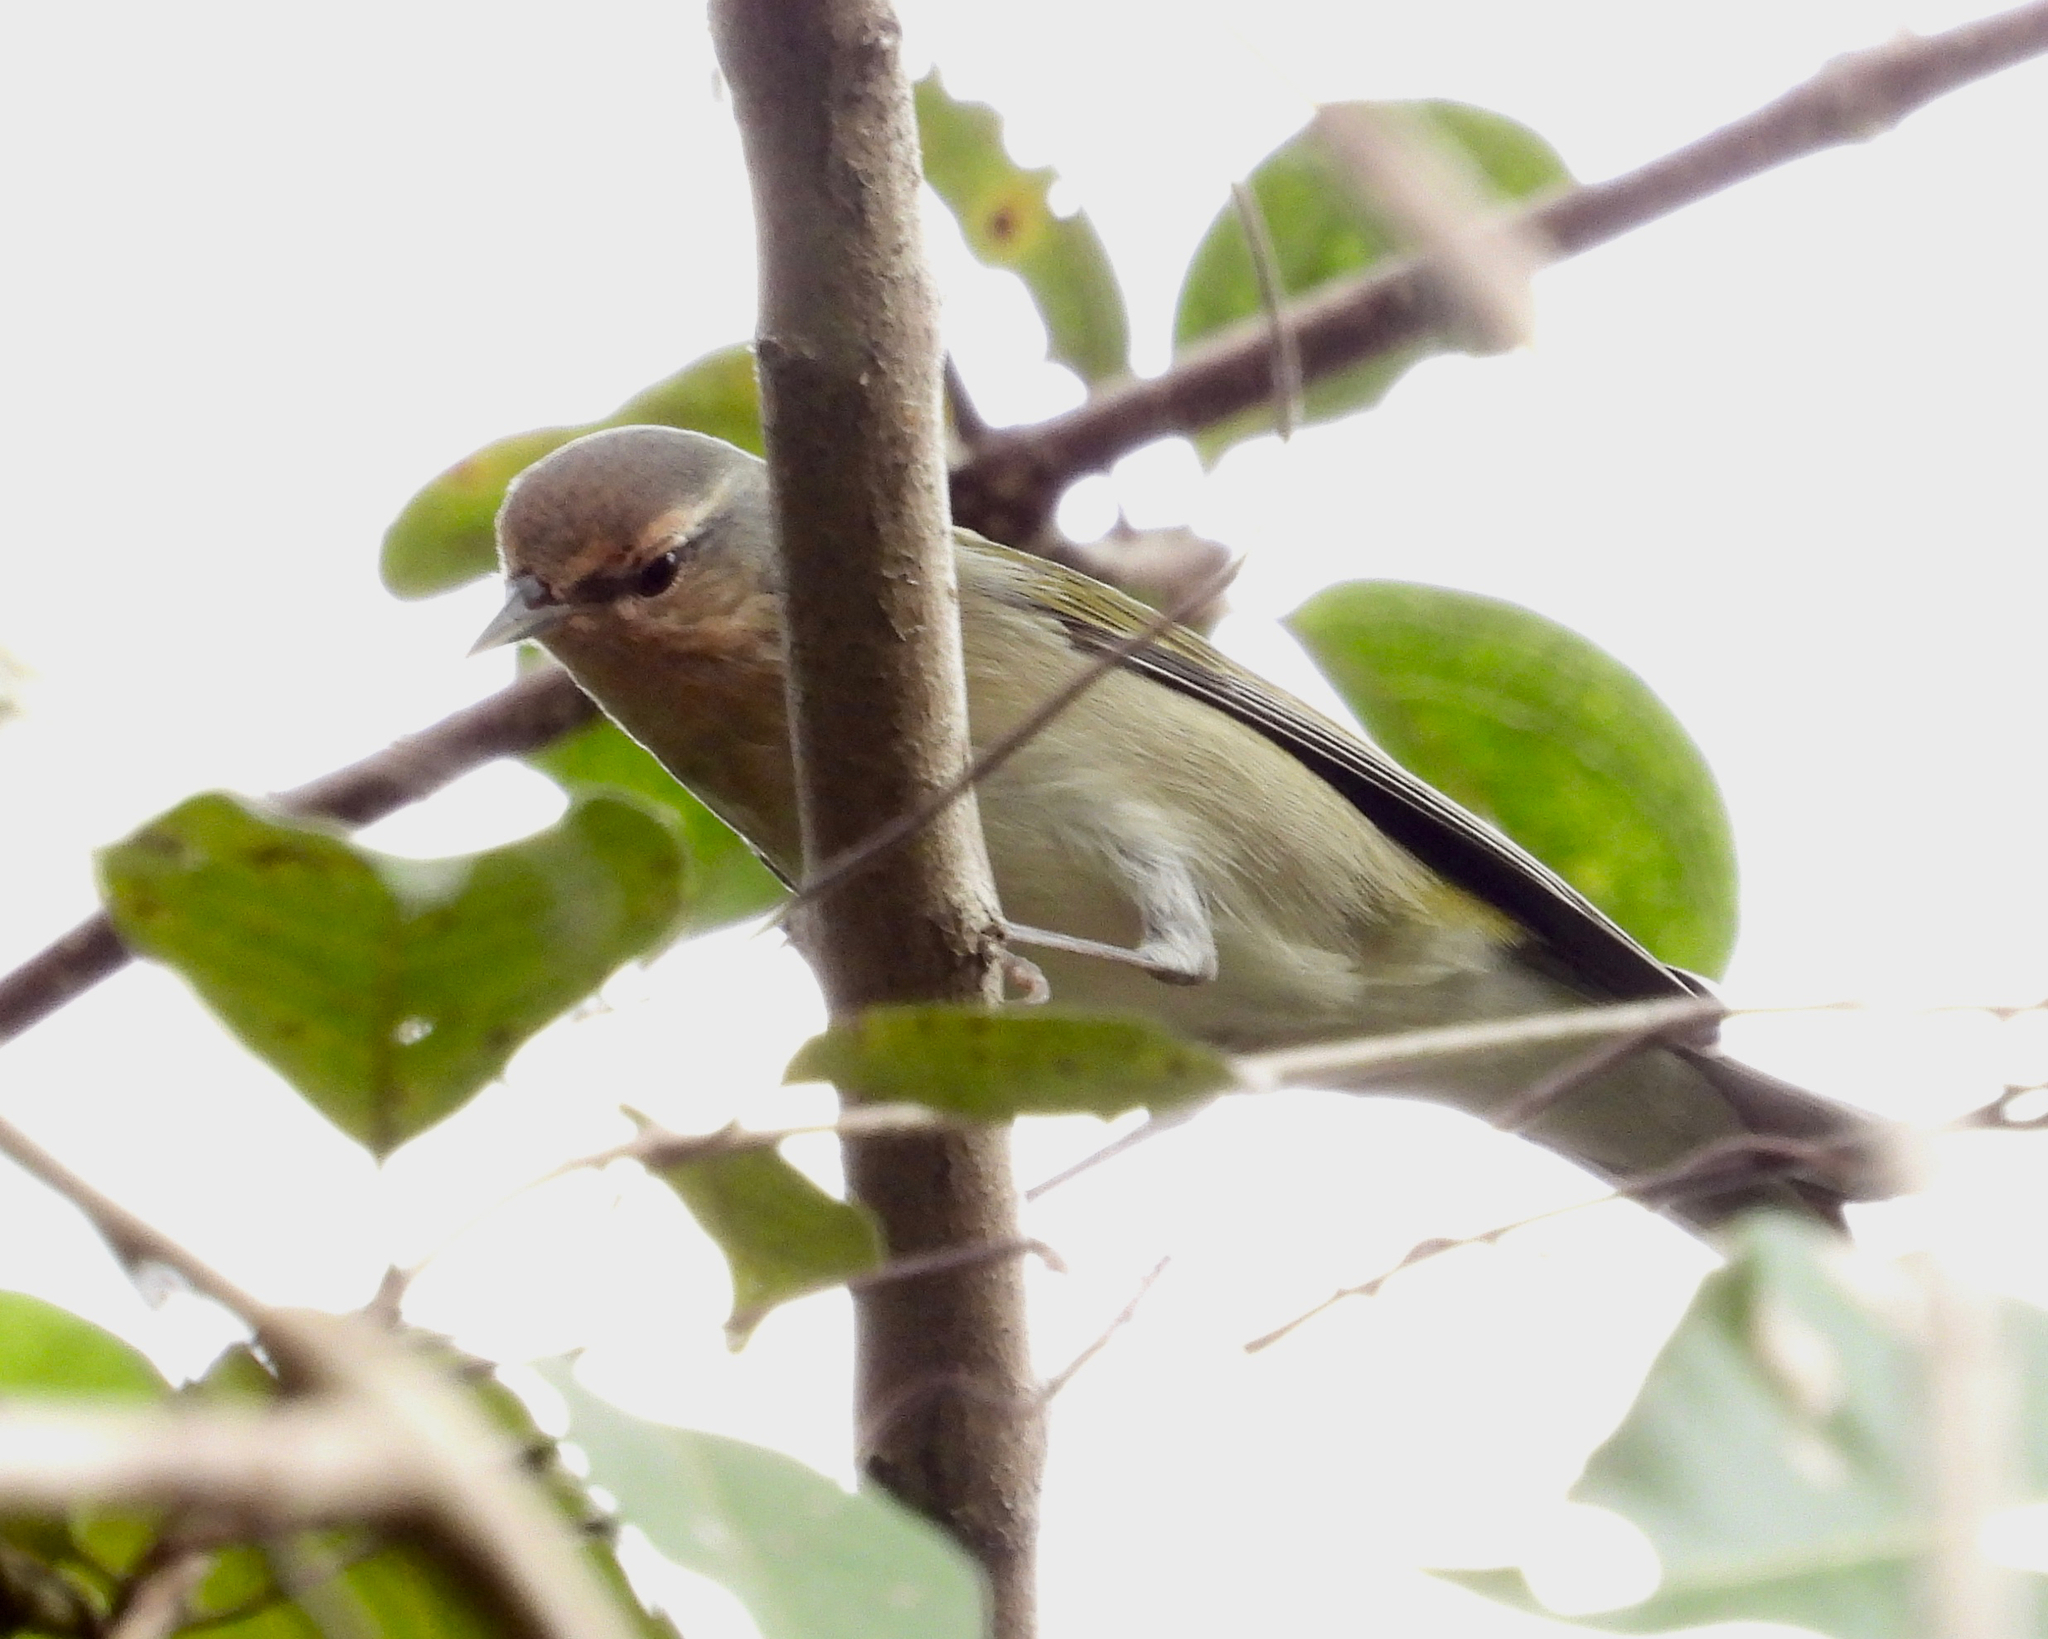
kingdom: Animalia
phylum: Chordata
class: Aves
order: Passeriformes
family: Parulidae
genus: Leiothlypis
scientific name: Leiothlypis peregrina
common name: Tennessee warbler
